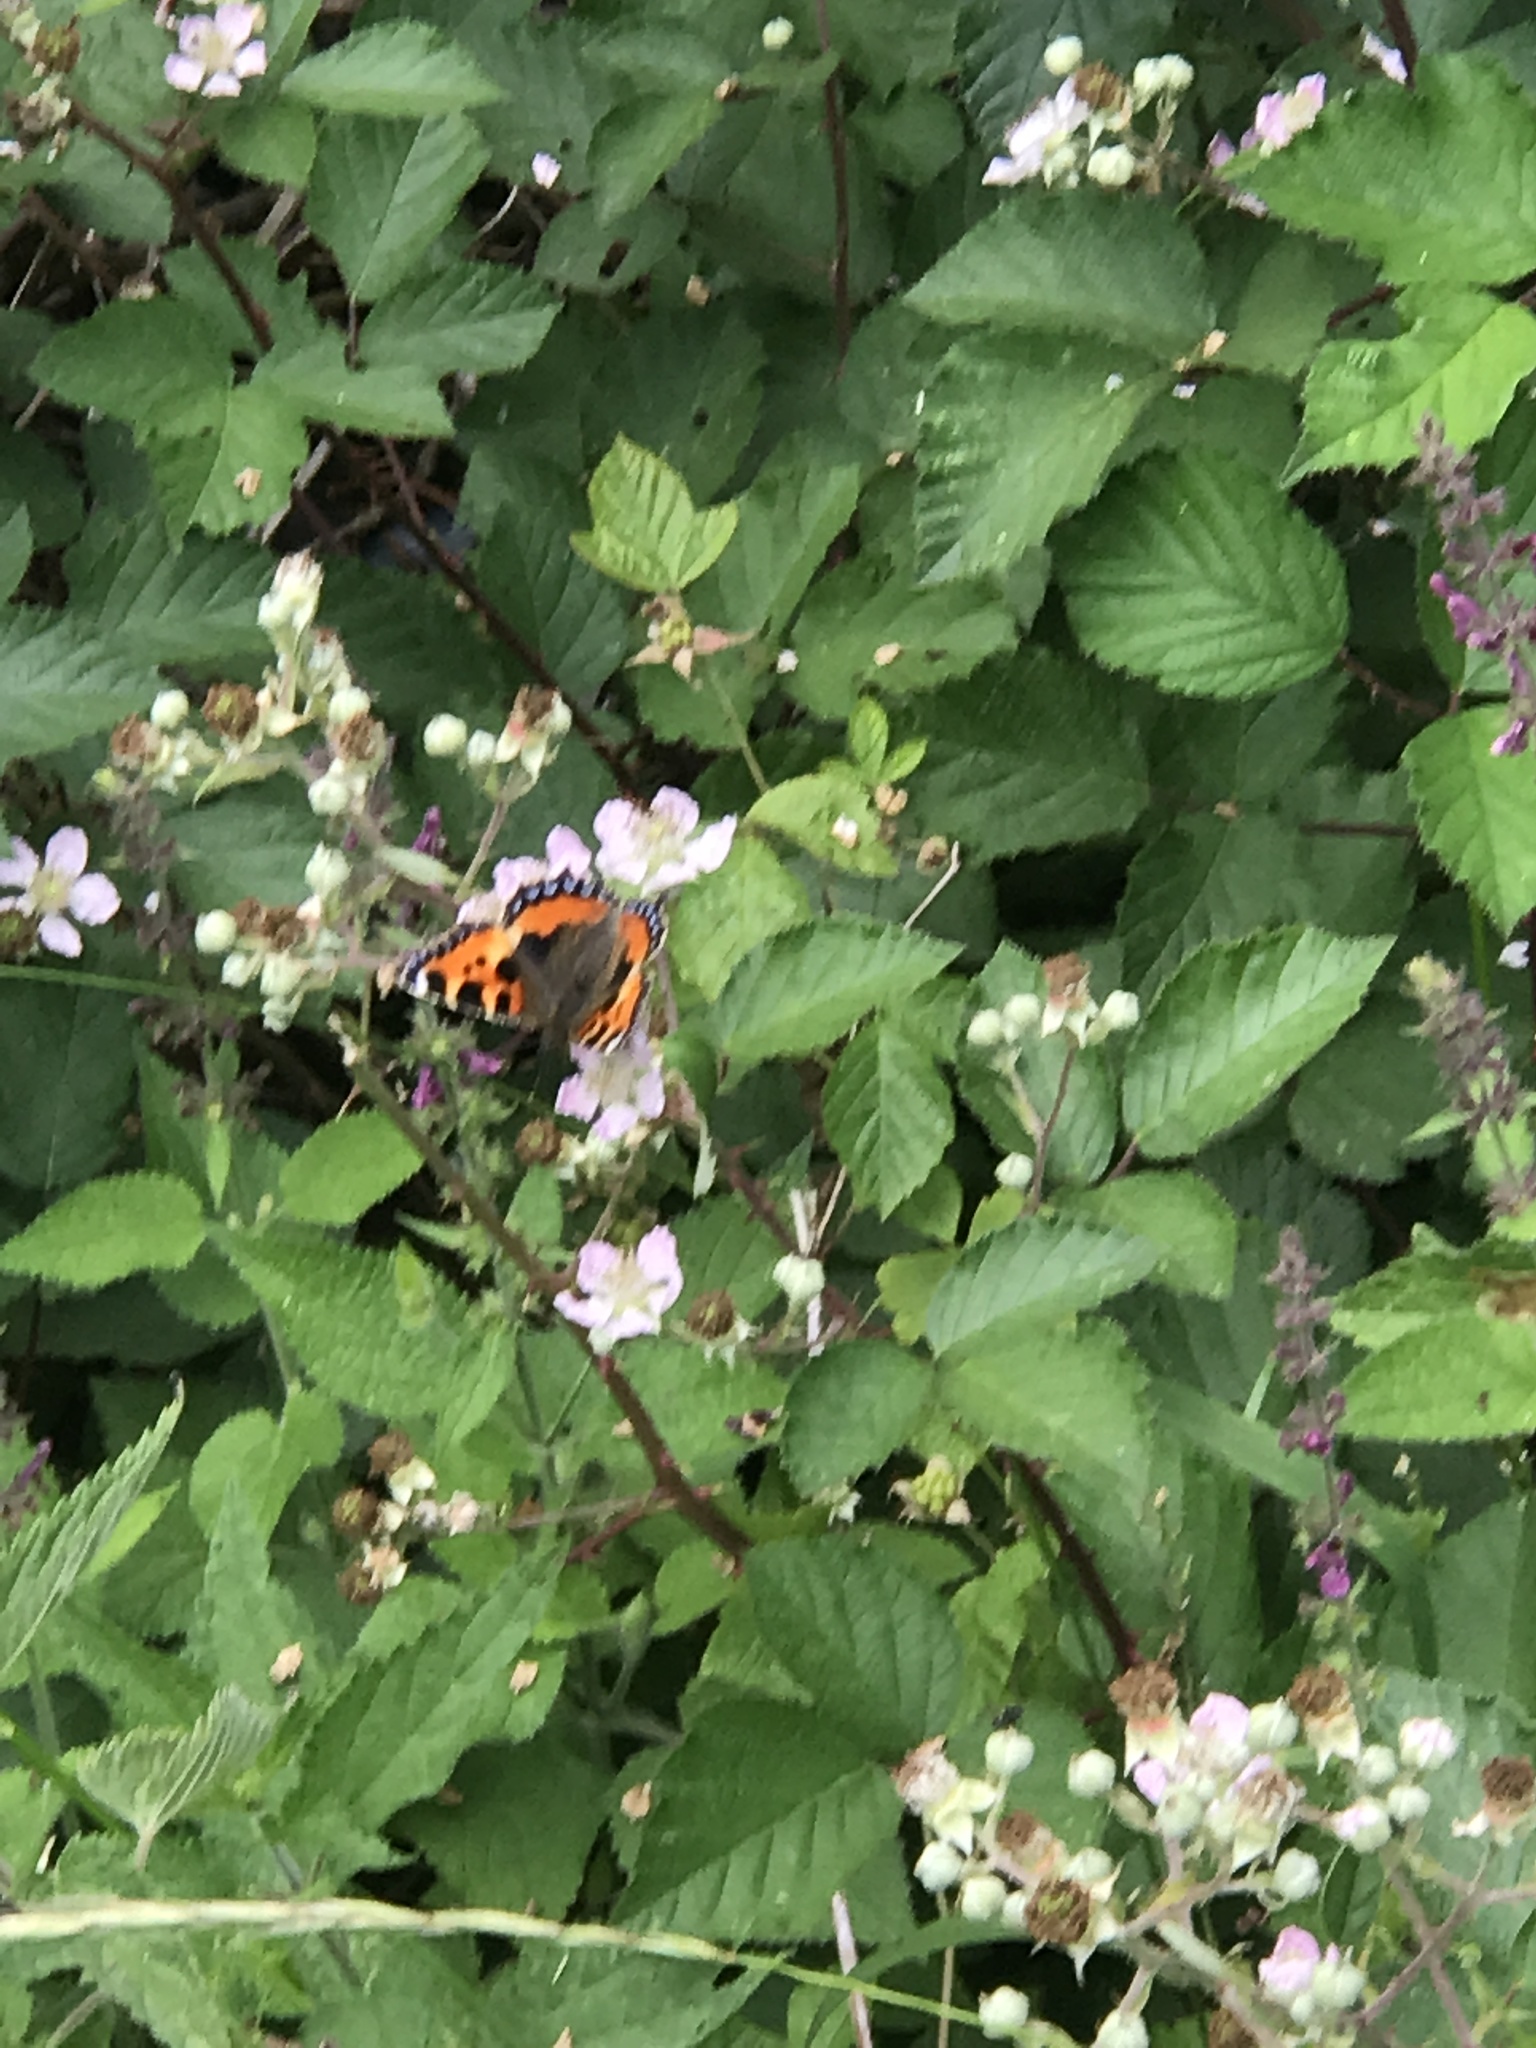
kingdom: Animalia
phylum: Arthropoda
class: Insecta
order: Lepidoptera
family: Nymphalidae
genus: Aglais
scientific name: Aglais urticae
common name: Small tortoiseshell
